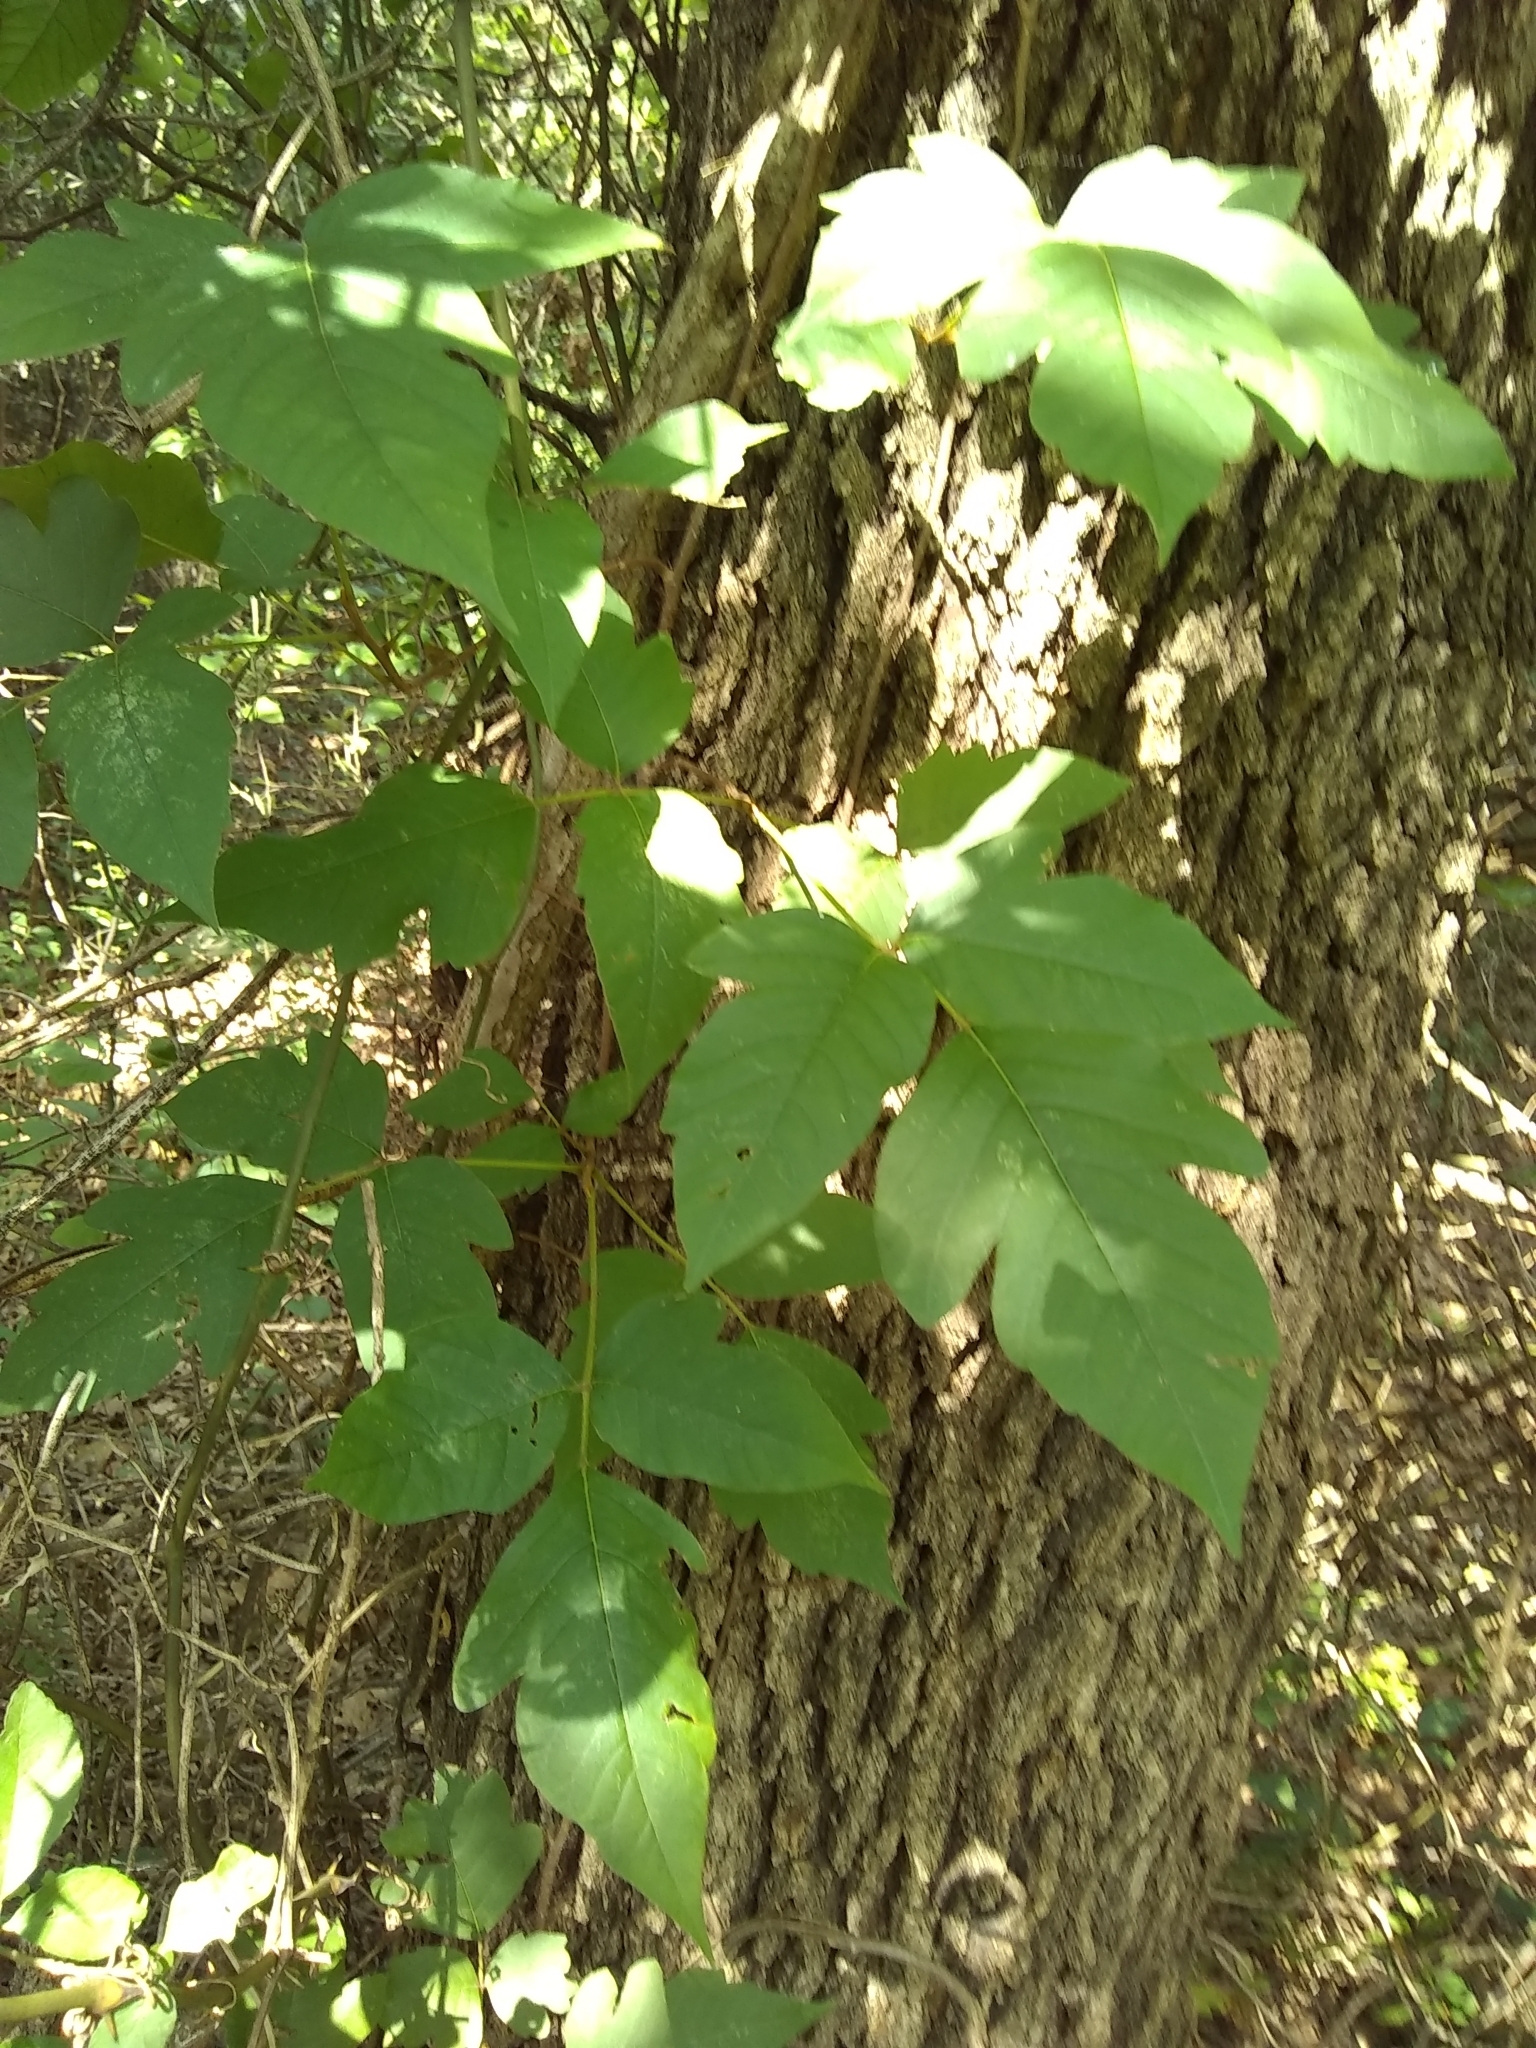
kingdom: Plantae
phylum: Tracheophyta
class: Magnoliopsida
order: Sapindales
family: Anacardiaceae
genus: Toxicodendron
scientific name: Toxicodendron radicans
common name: Poison ivy
